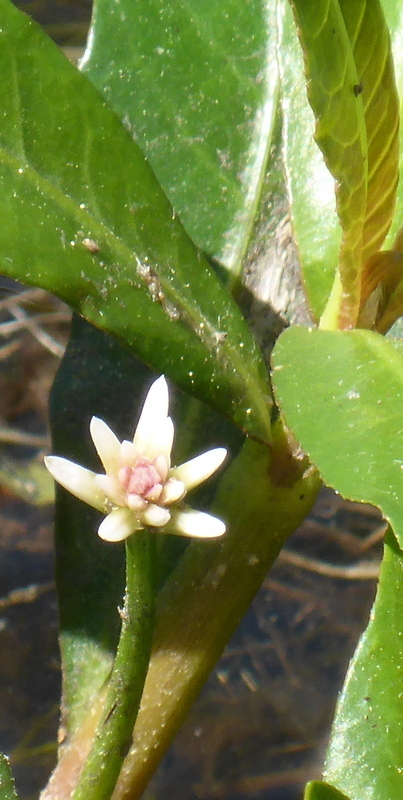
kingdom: Plantae
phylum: Tracheophyta
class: Magnoliopsida
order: Caryophyllales
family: Amaranthaceae
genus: Alternanthera
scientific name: Alternanthera philoxeroides
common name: Alligatorweed
